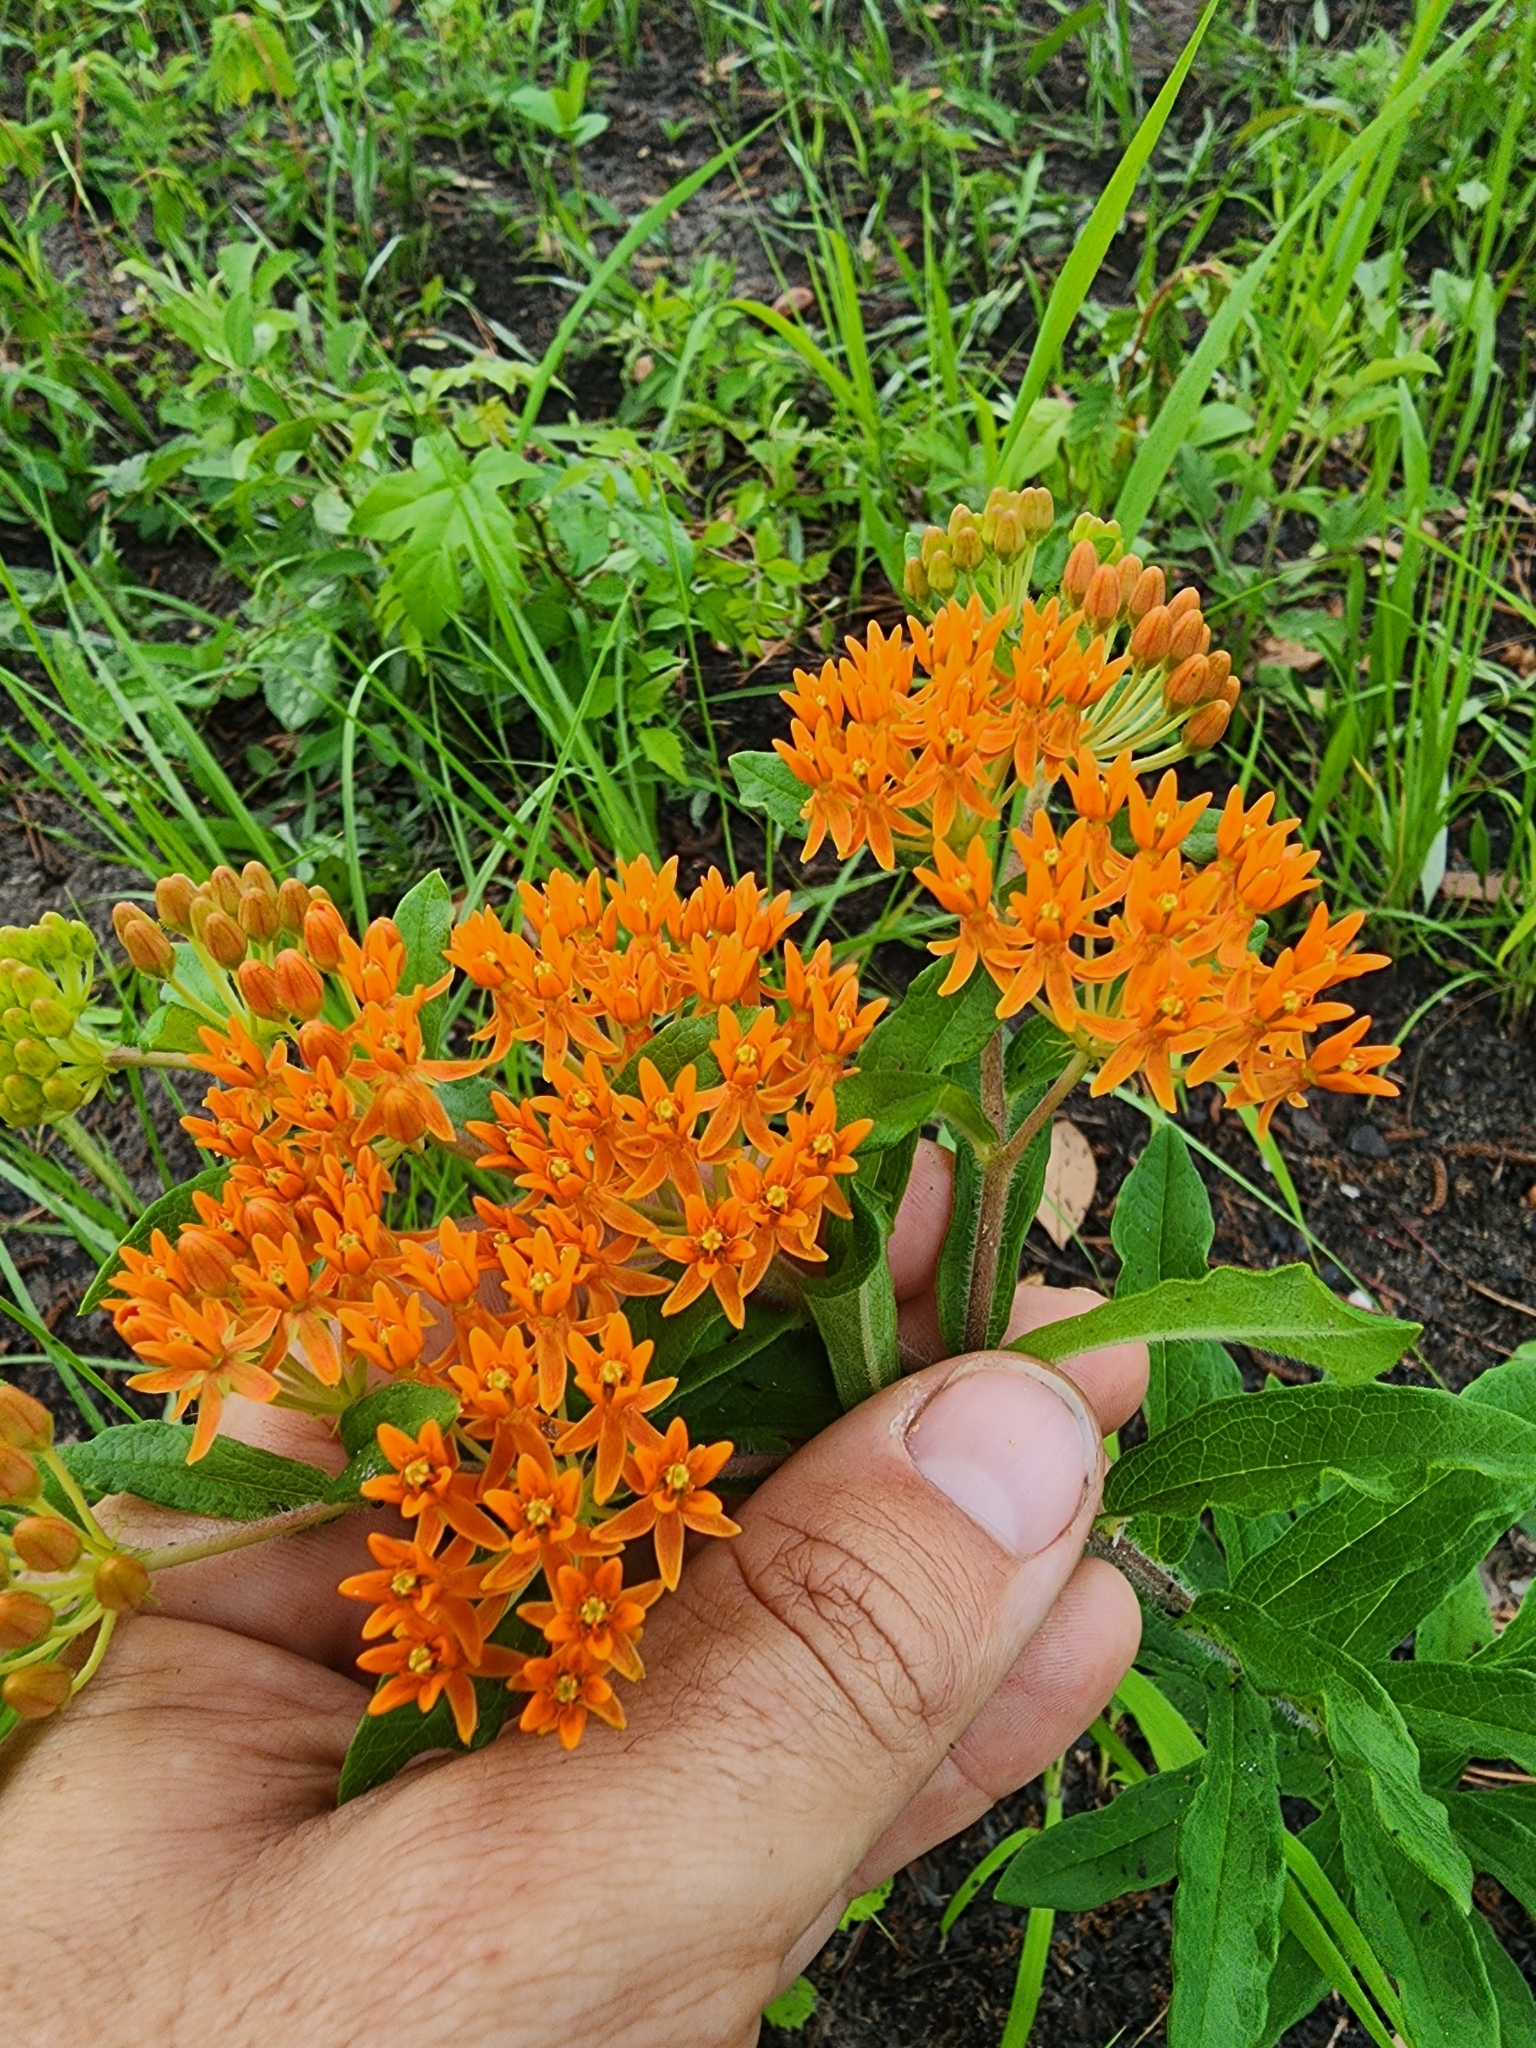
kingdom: Plantae
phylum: Tracheophyta
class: Magnoliopsida
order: Gentianales
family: Apocynaceae
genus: Asclepias
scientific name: Asclepias tuberosa
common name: Butterfly milkweed
